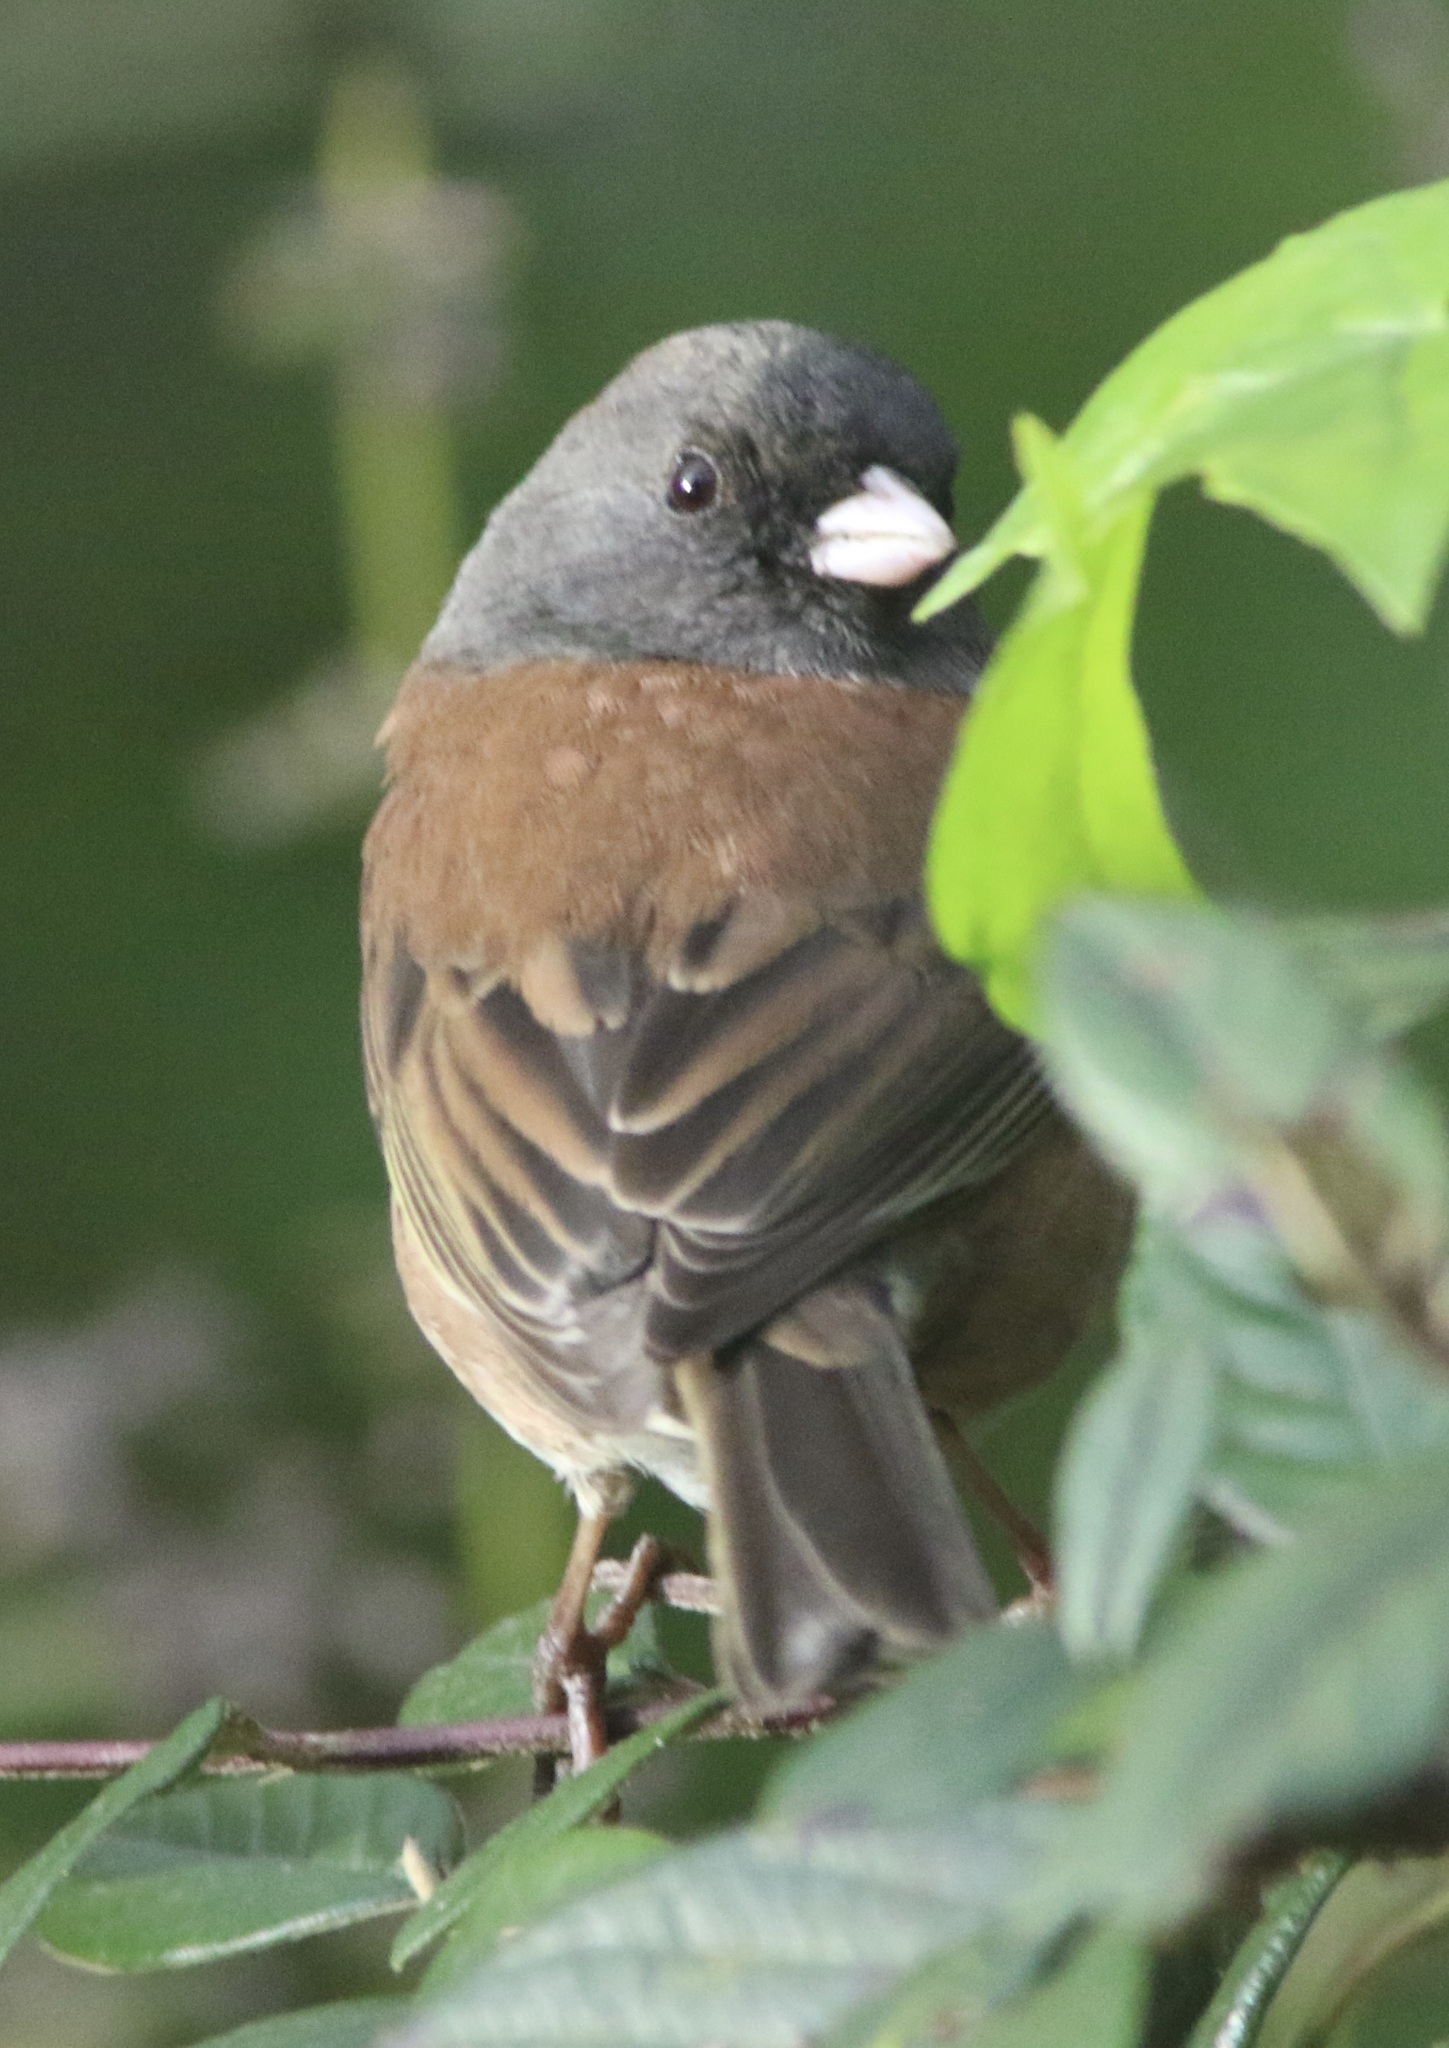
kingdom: Animalia
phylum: Chordata
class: Aves
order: Passeriformes
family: Passerellidae
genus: Junco
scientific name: Junco hyemalis
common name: Dark-eyed junco
